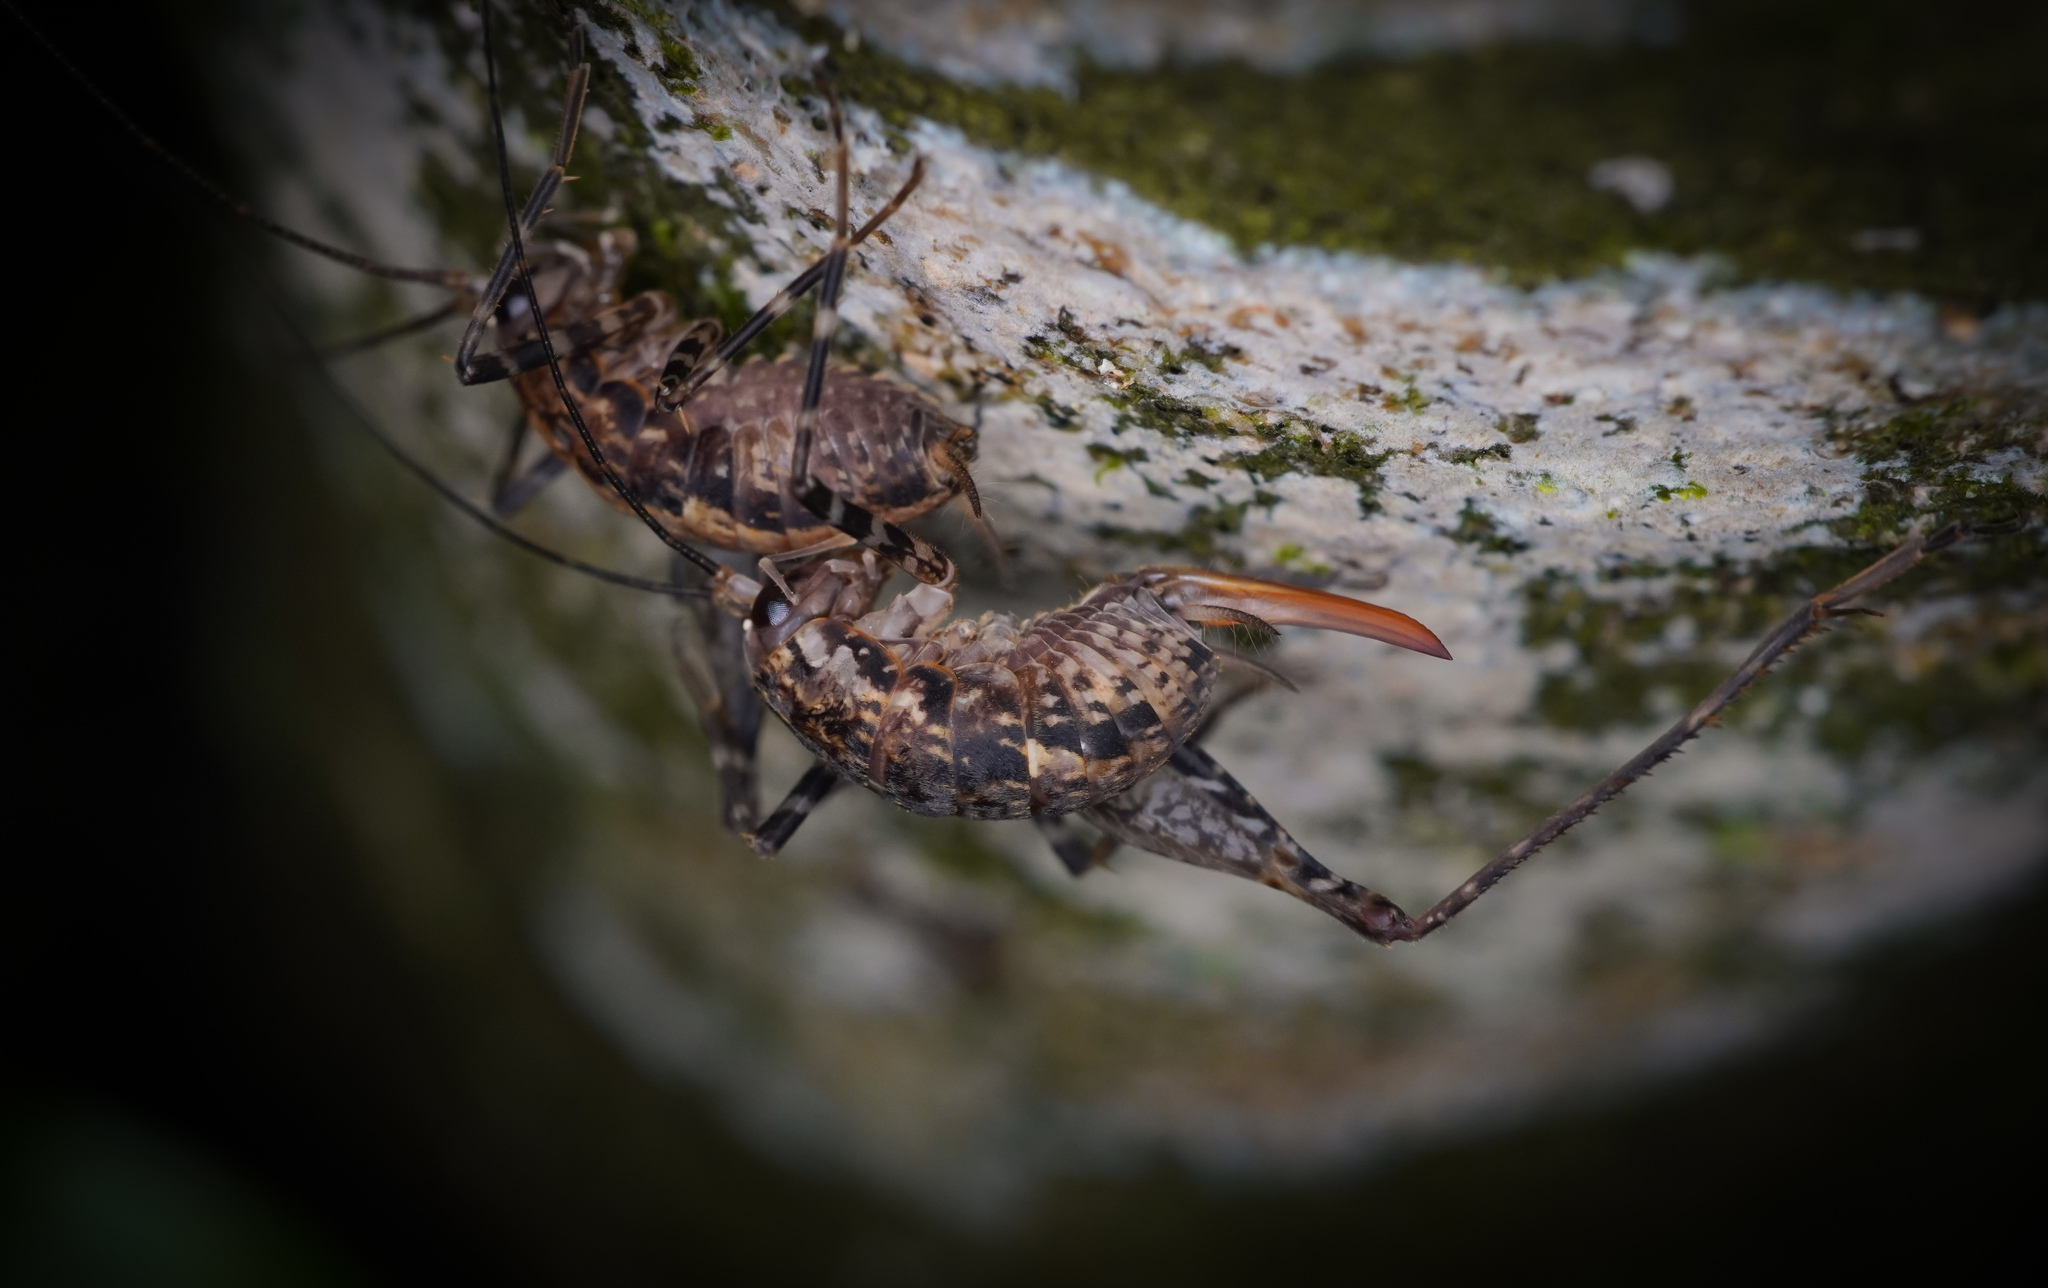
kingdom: Animalia
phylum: Arthropoda
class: Insecta
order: Orthoptera
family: Rhaphidophoridae
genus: Pleioplectron
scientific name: Pleioplectron hudsoni
